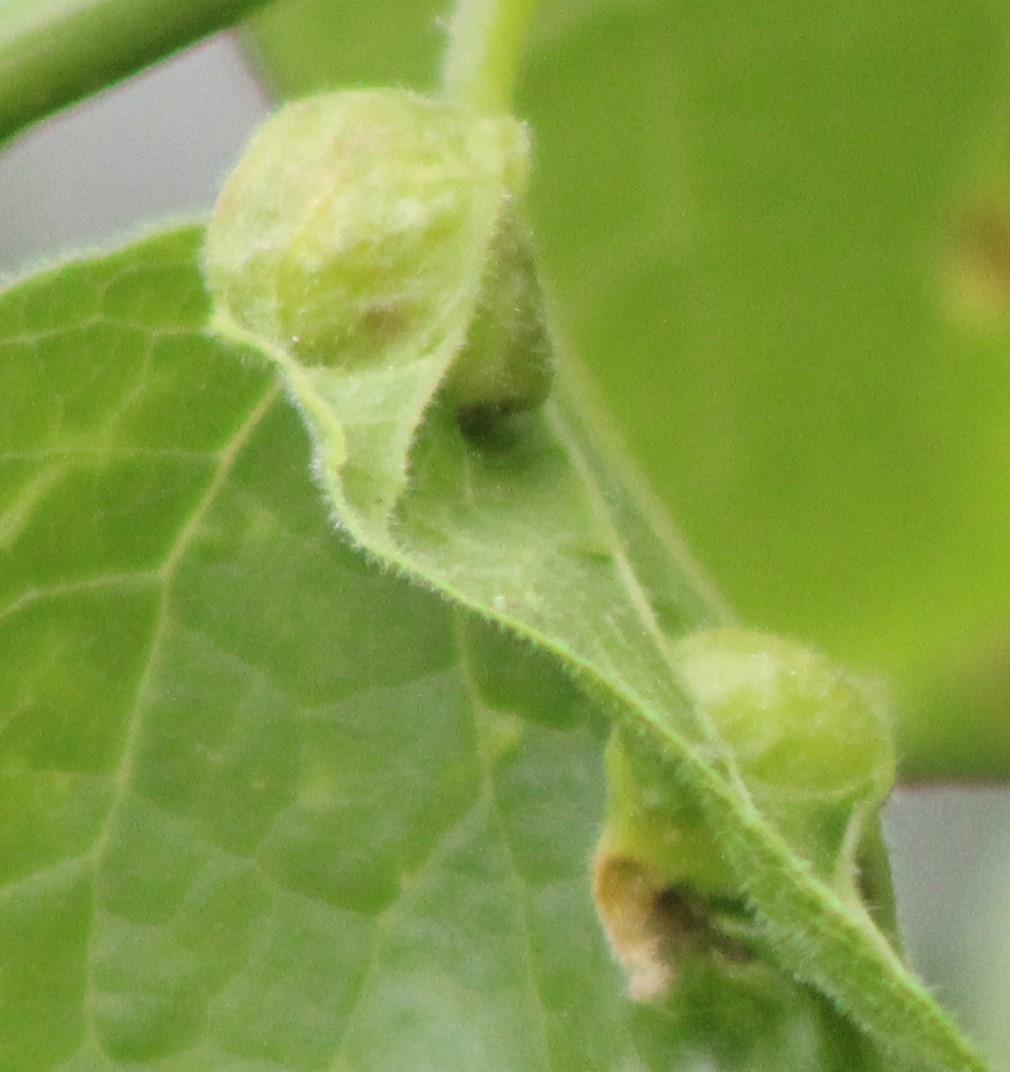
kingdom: Animalia
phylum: Arthropoda
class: Insecta
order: Diptera
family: Cecidomyiidae
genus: Peracecis
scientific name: Peracecis fugitiva
